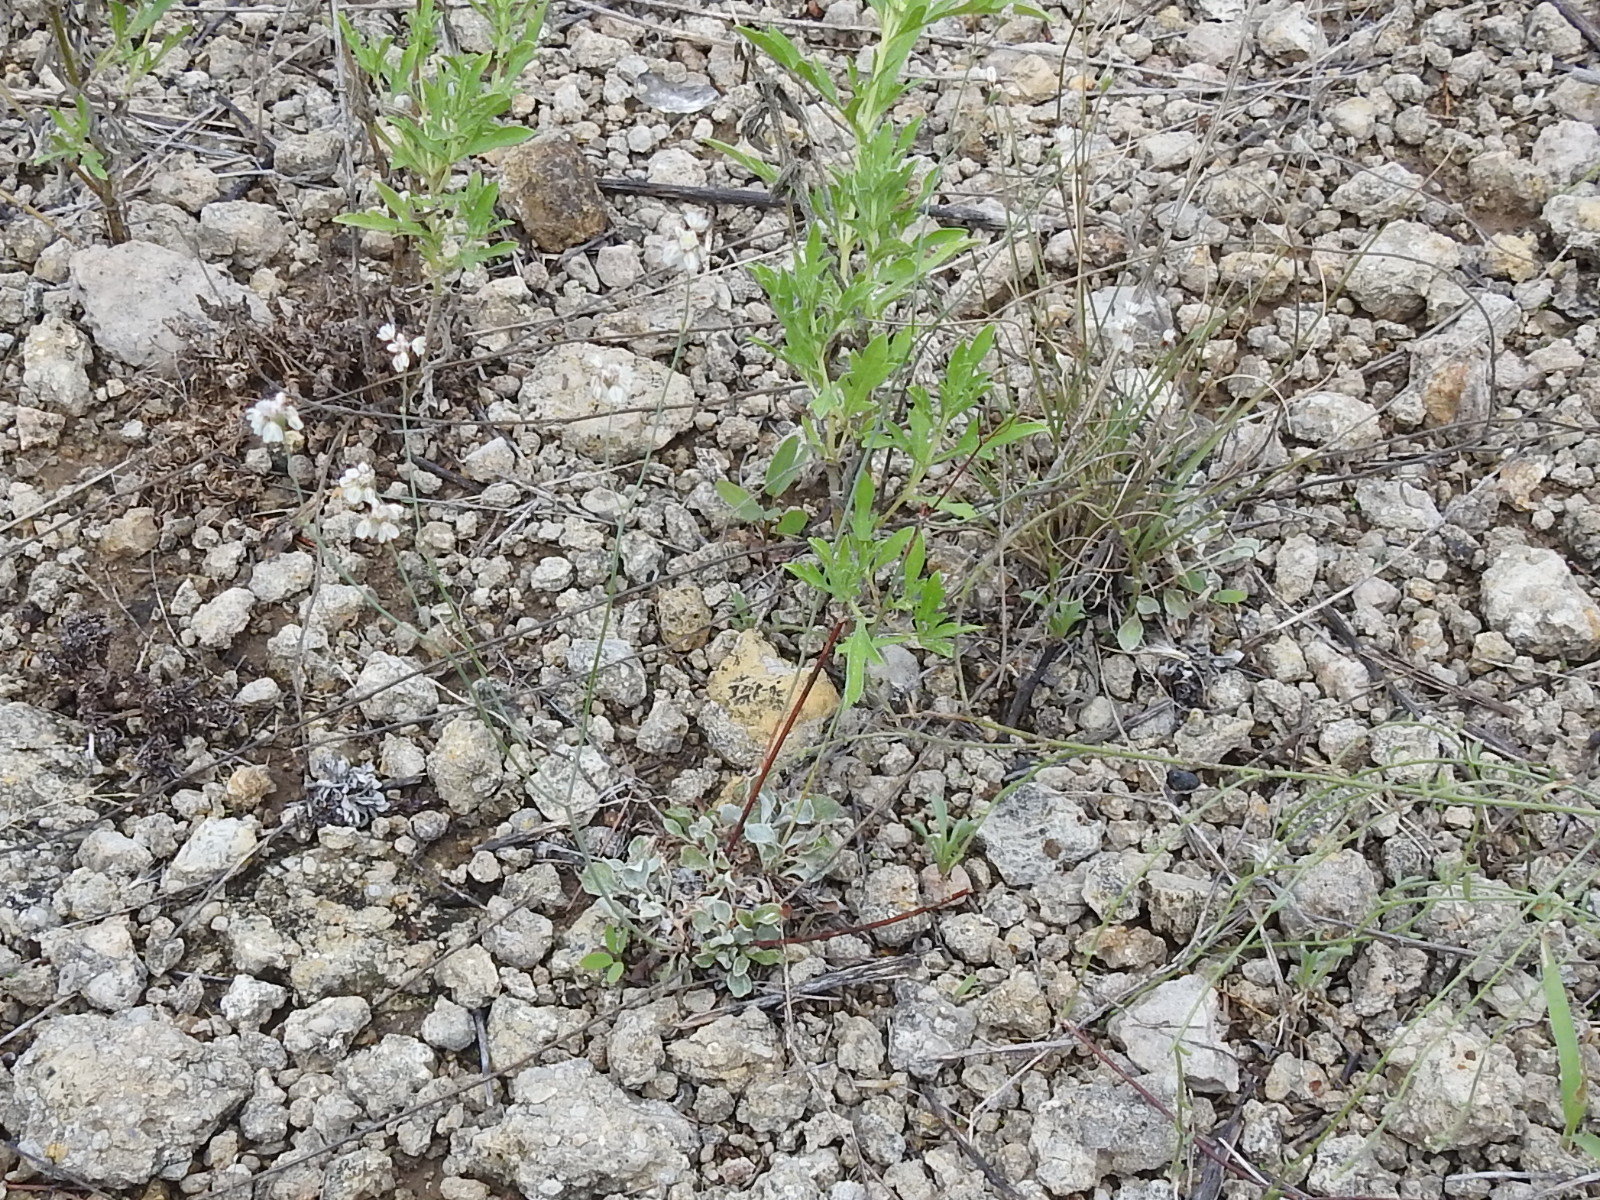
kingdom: Plantae
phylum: Tracheophyta
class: Magnoliopsida
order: Caryophyllales
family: Polygonaceae
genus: Eriogonum
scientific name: Eriogonum tenellum
